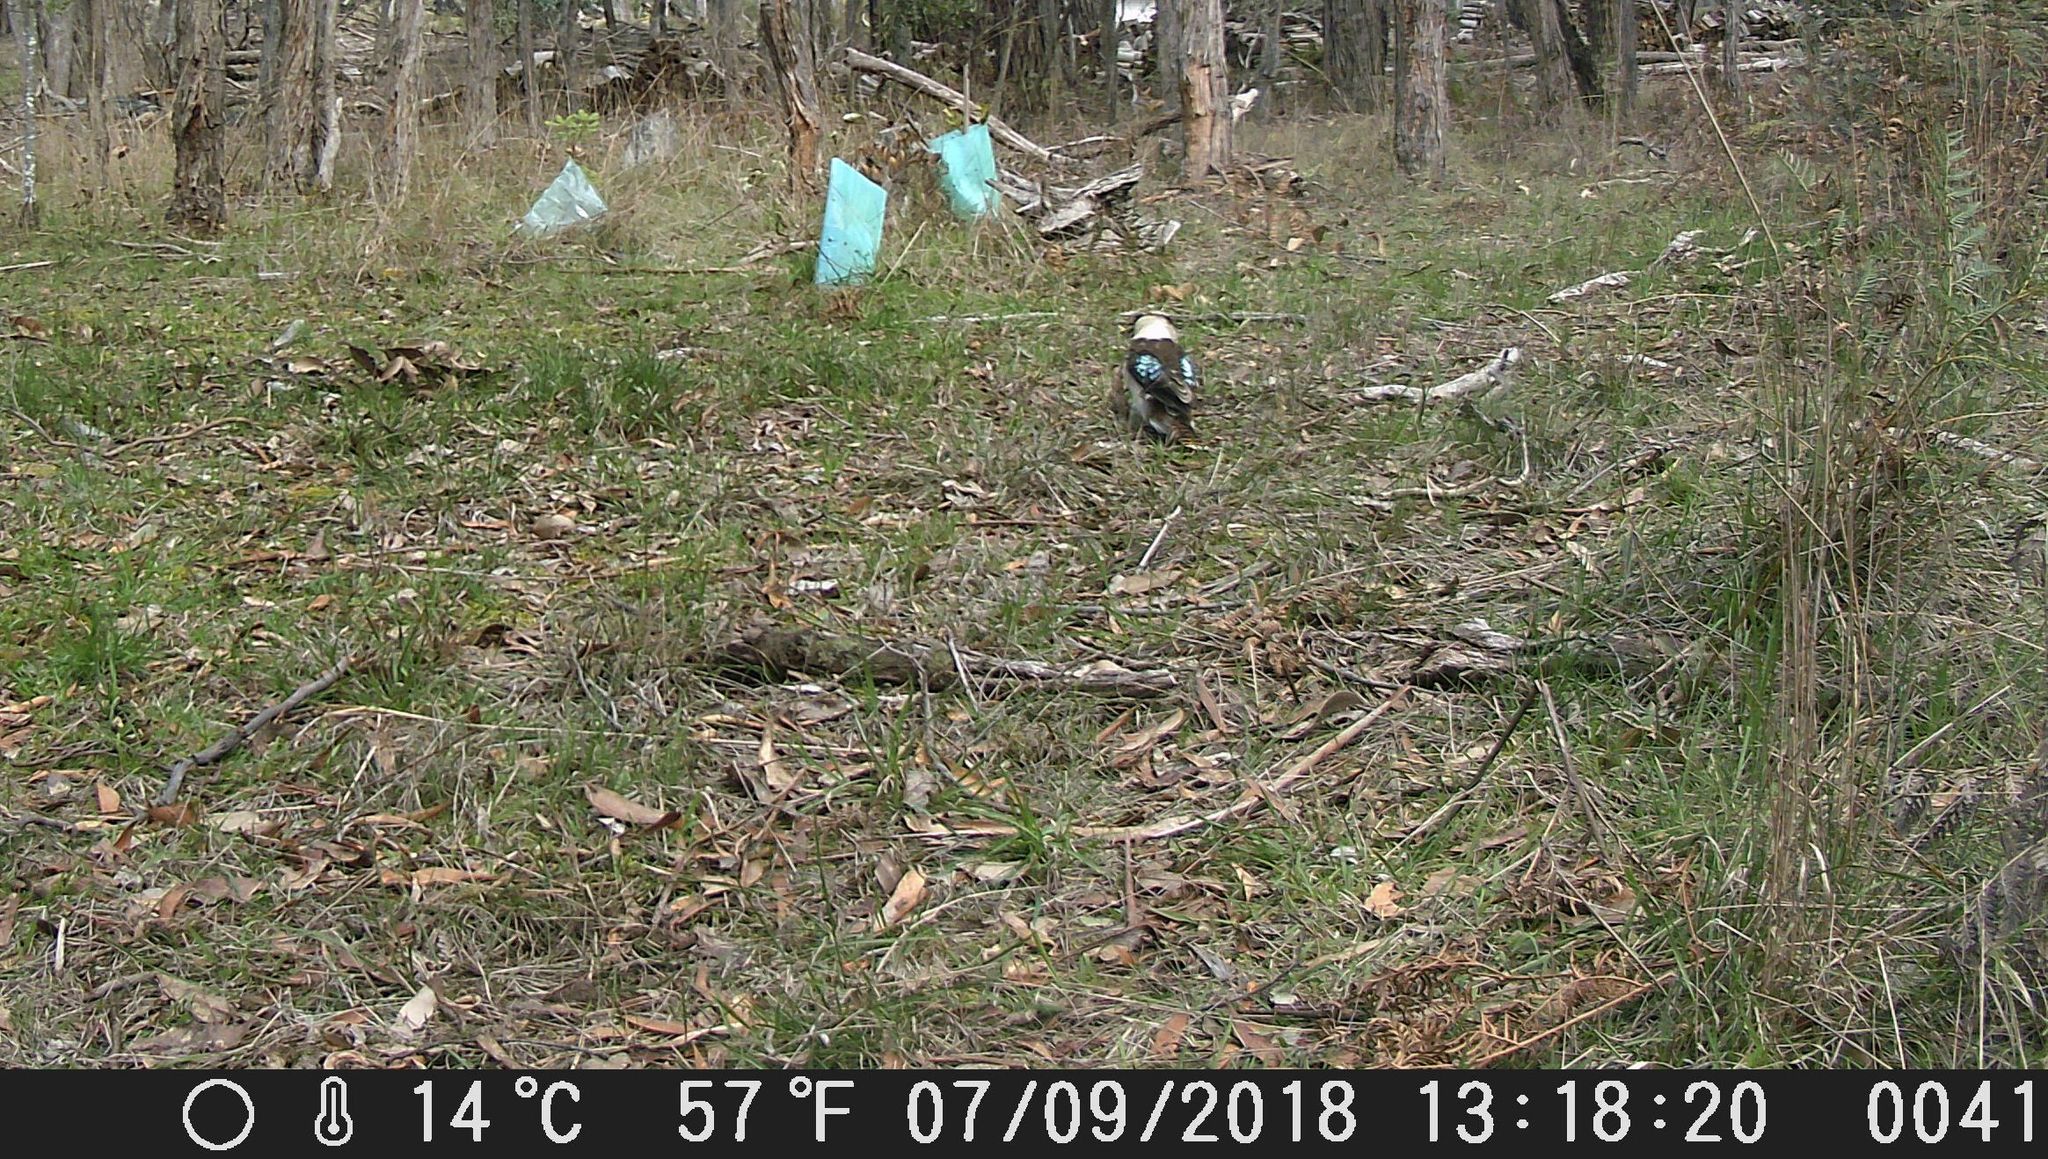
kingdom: Animalia
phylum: Chordata
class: Aves
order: Coraciiformes
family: Alcedinidae
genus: Dacelo
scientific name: Dacelo novaeguineae
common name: Laughing kookaburra
